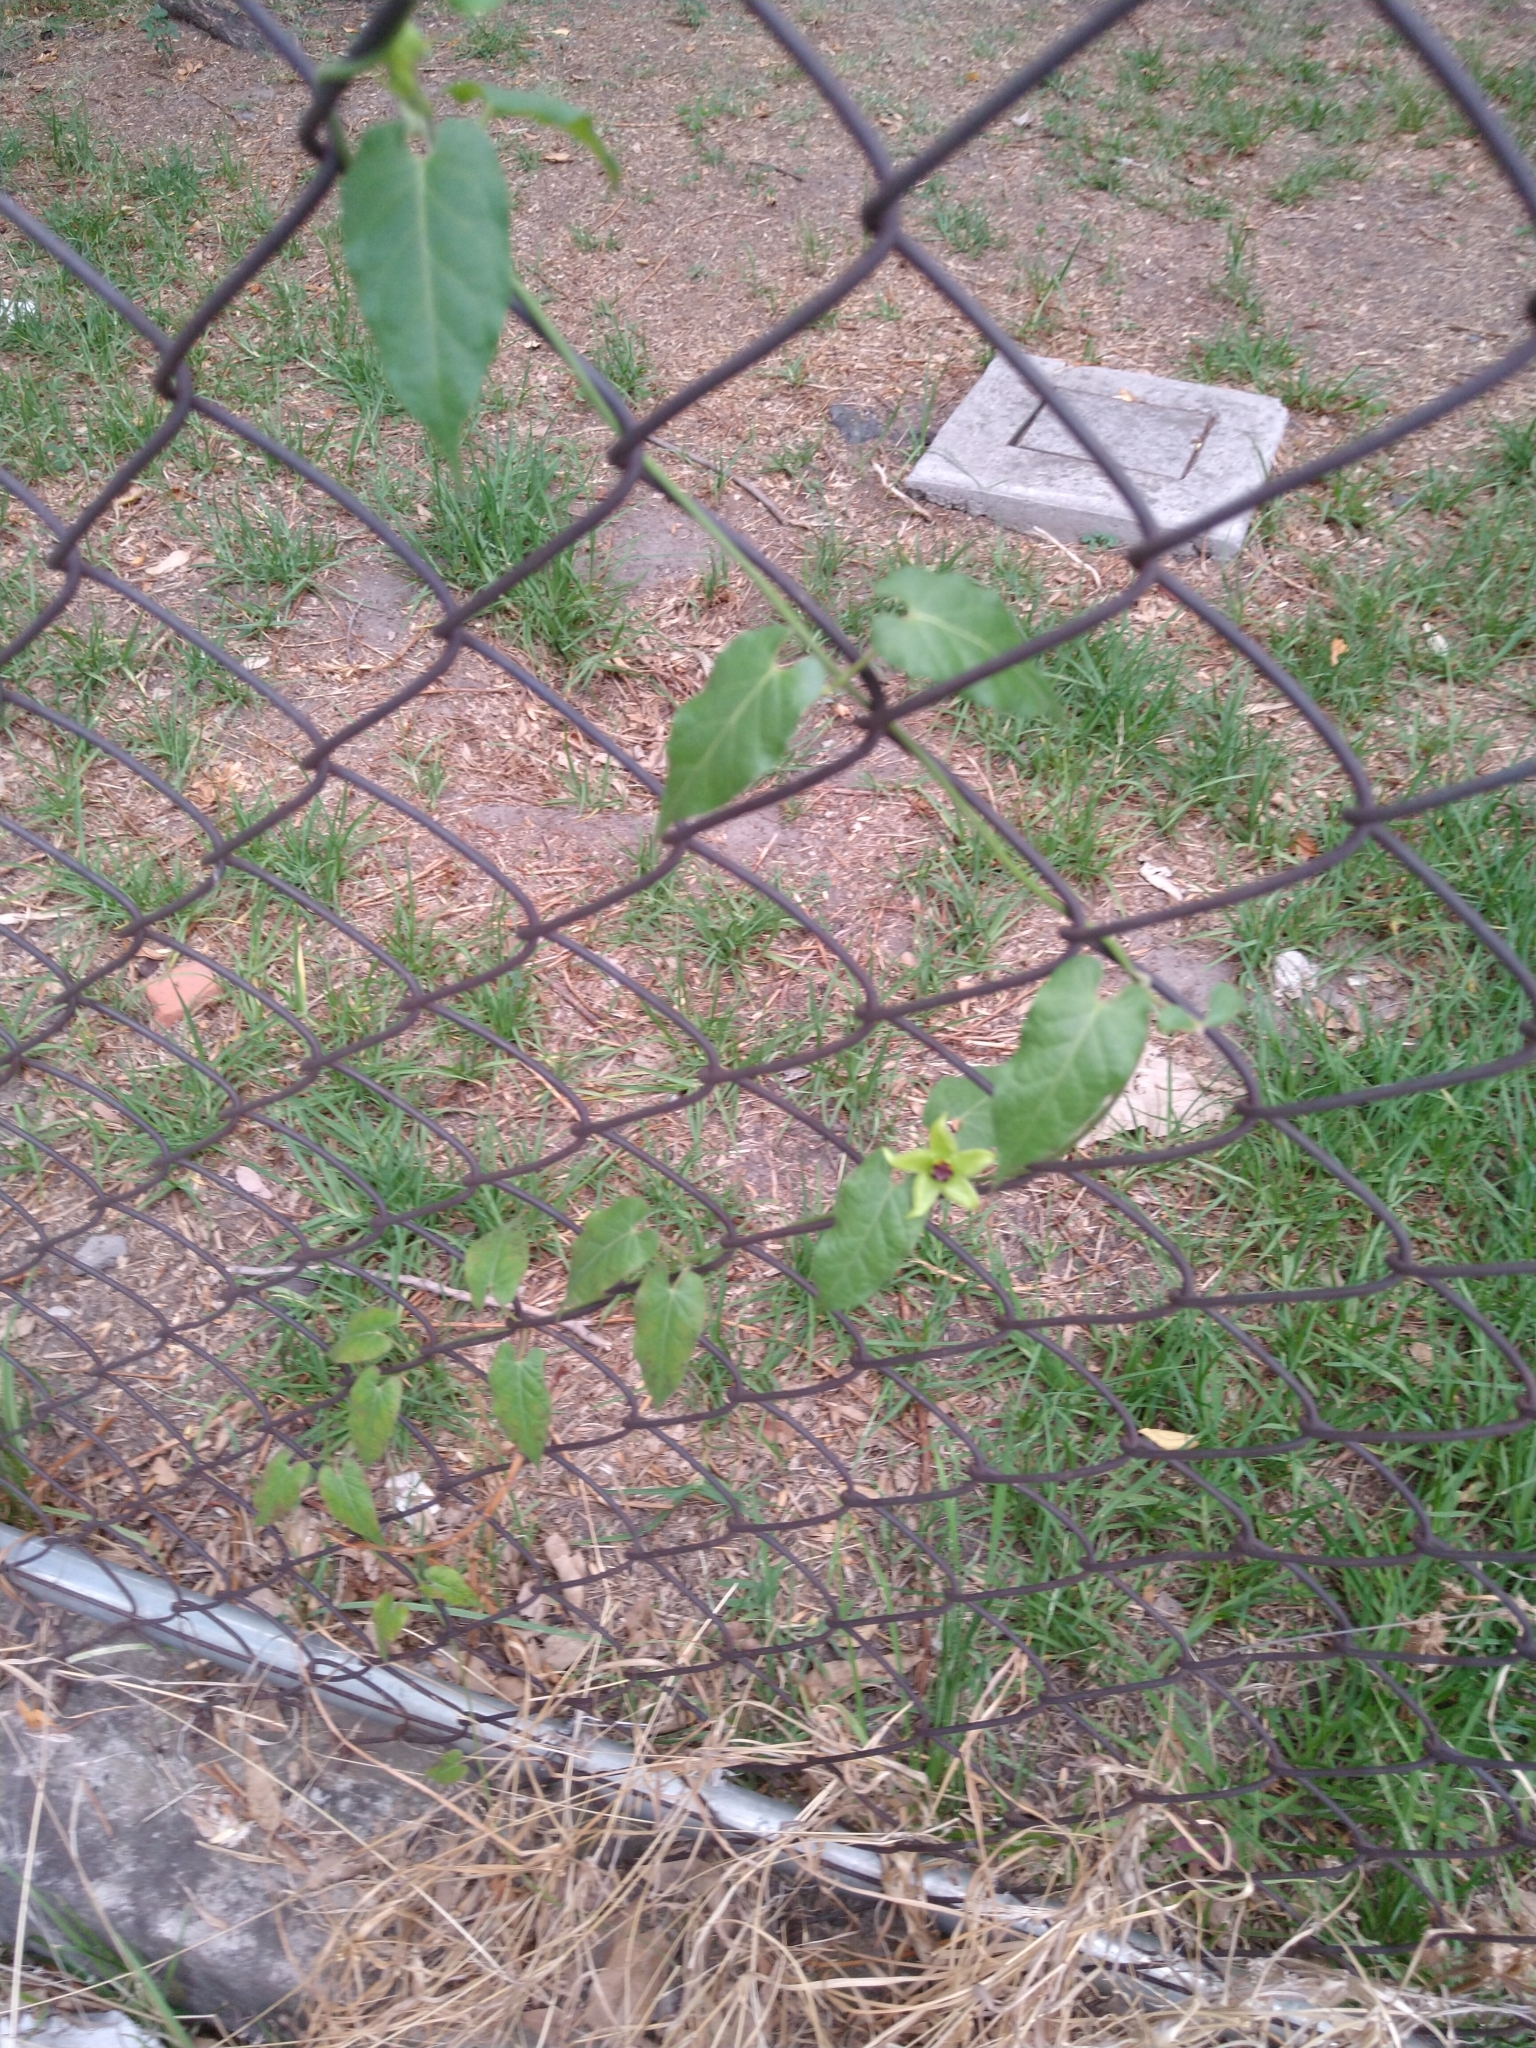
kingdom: Plantae
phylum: Tracheophyta
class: Magnoliopsida
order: Gentianales
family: Apocynaceae
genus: Gonolobus
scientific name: Gonolobus uniflorus
